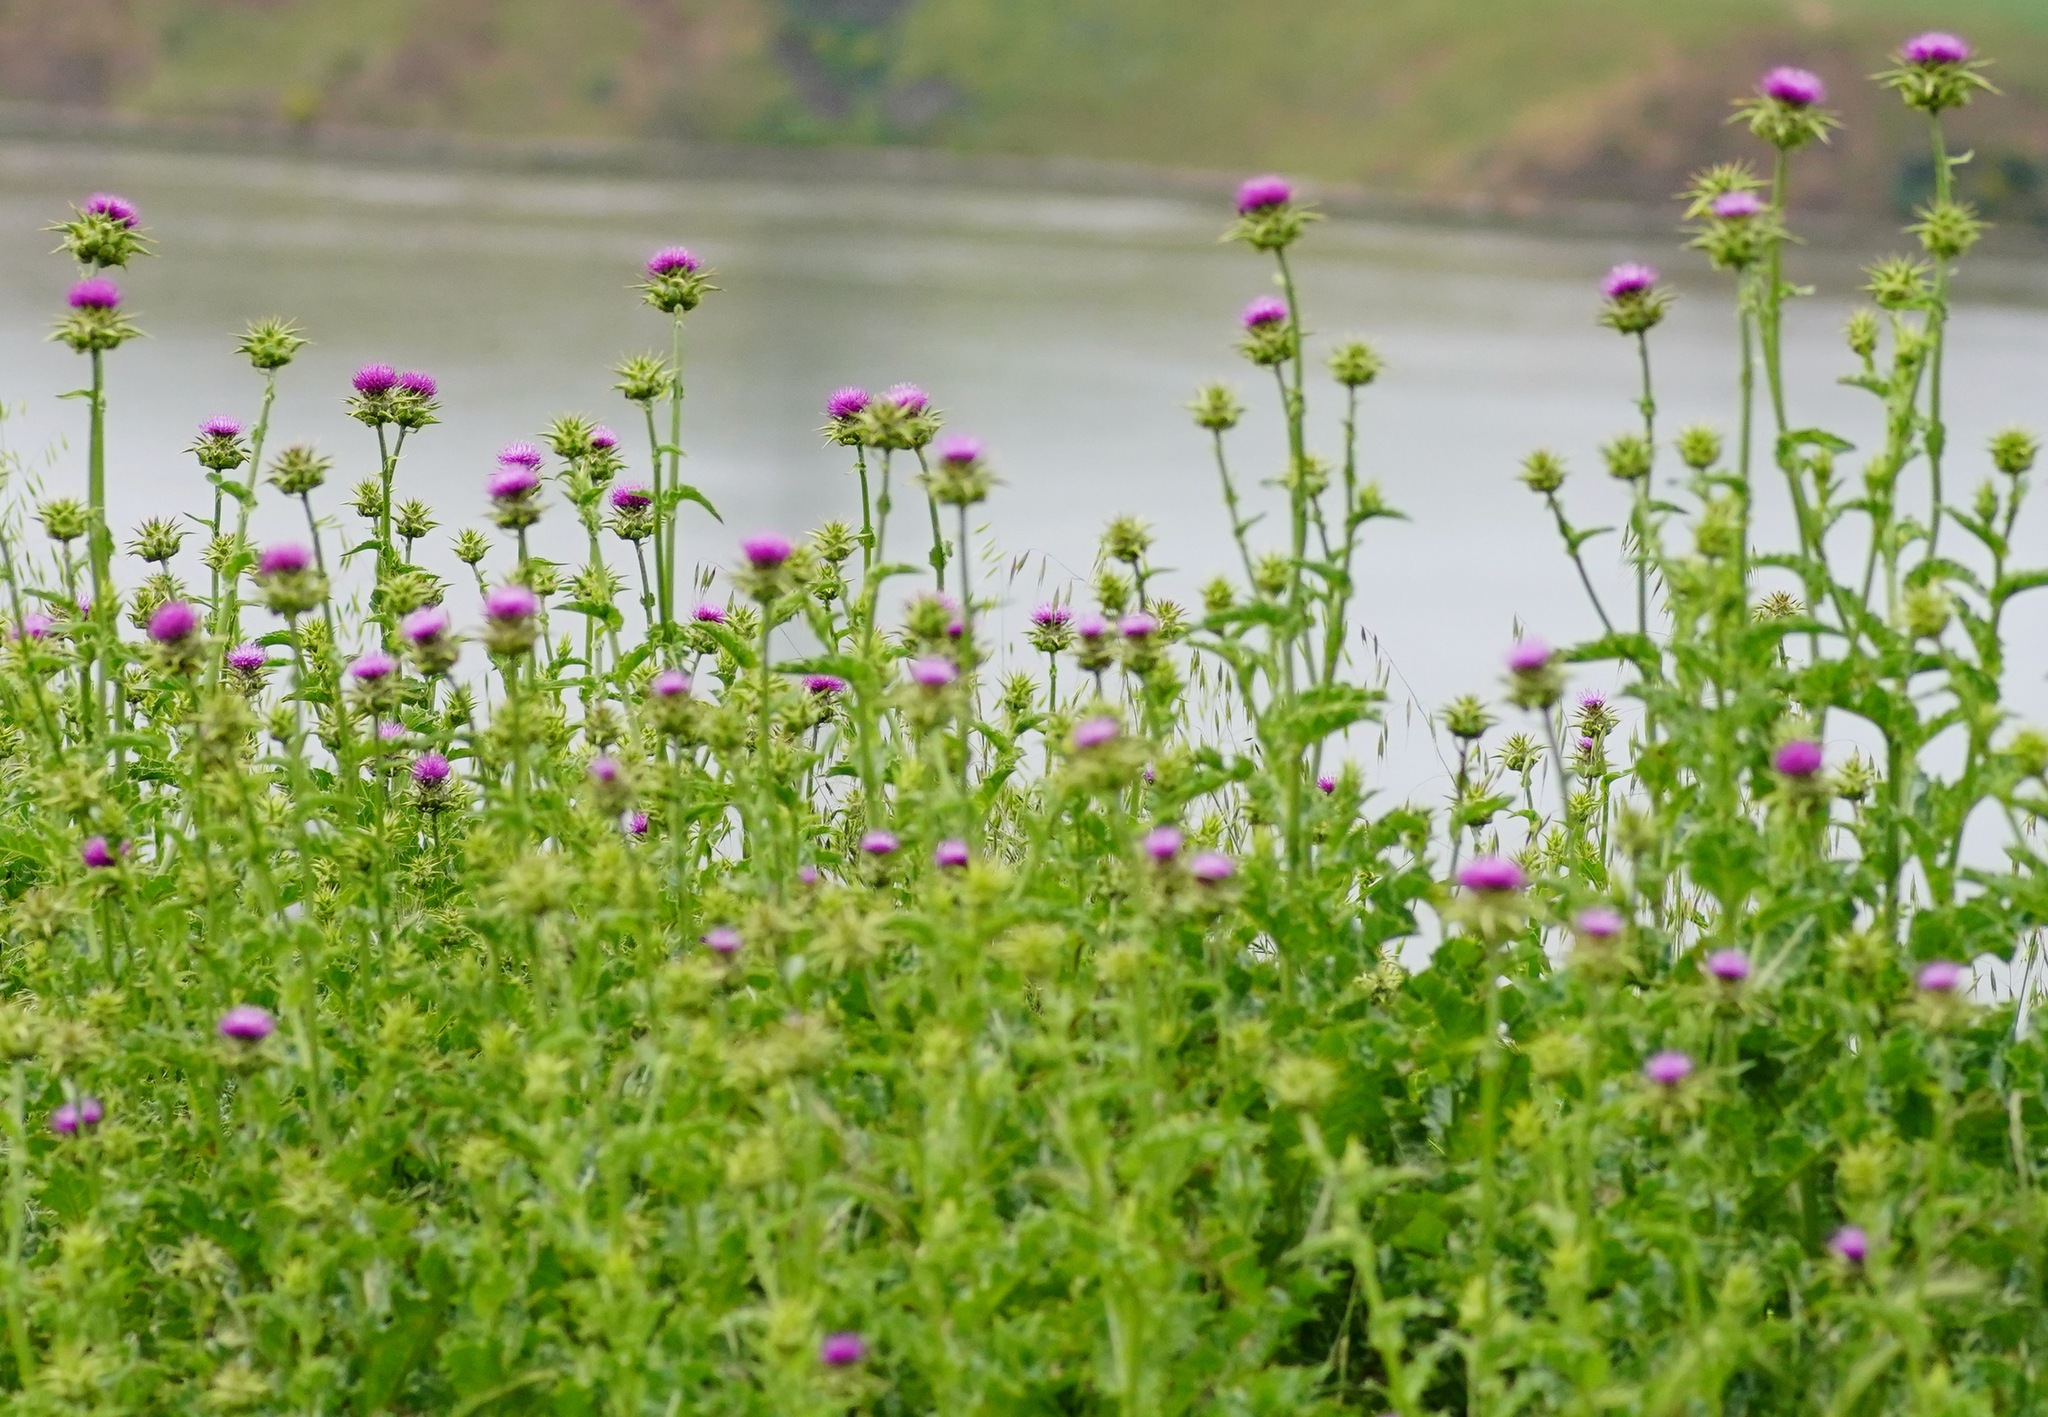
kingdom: Plantae
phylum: Tracheophyta
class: Magnoliopsida
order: Asterales
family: Asteraceae
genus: Silybum
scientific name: Silybum marianum
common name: Milk thistle
